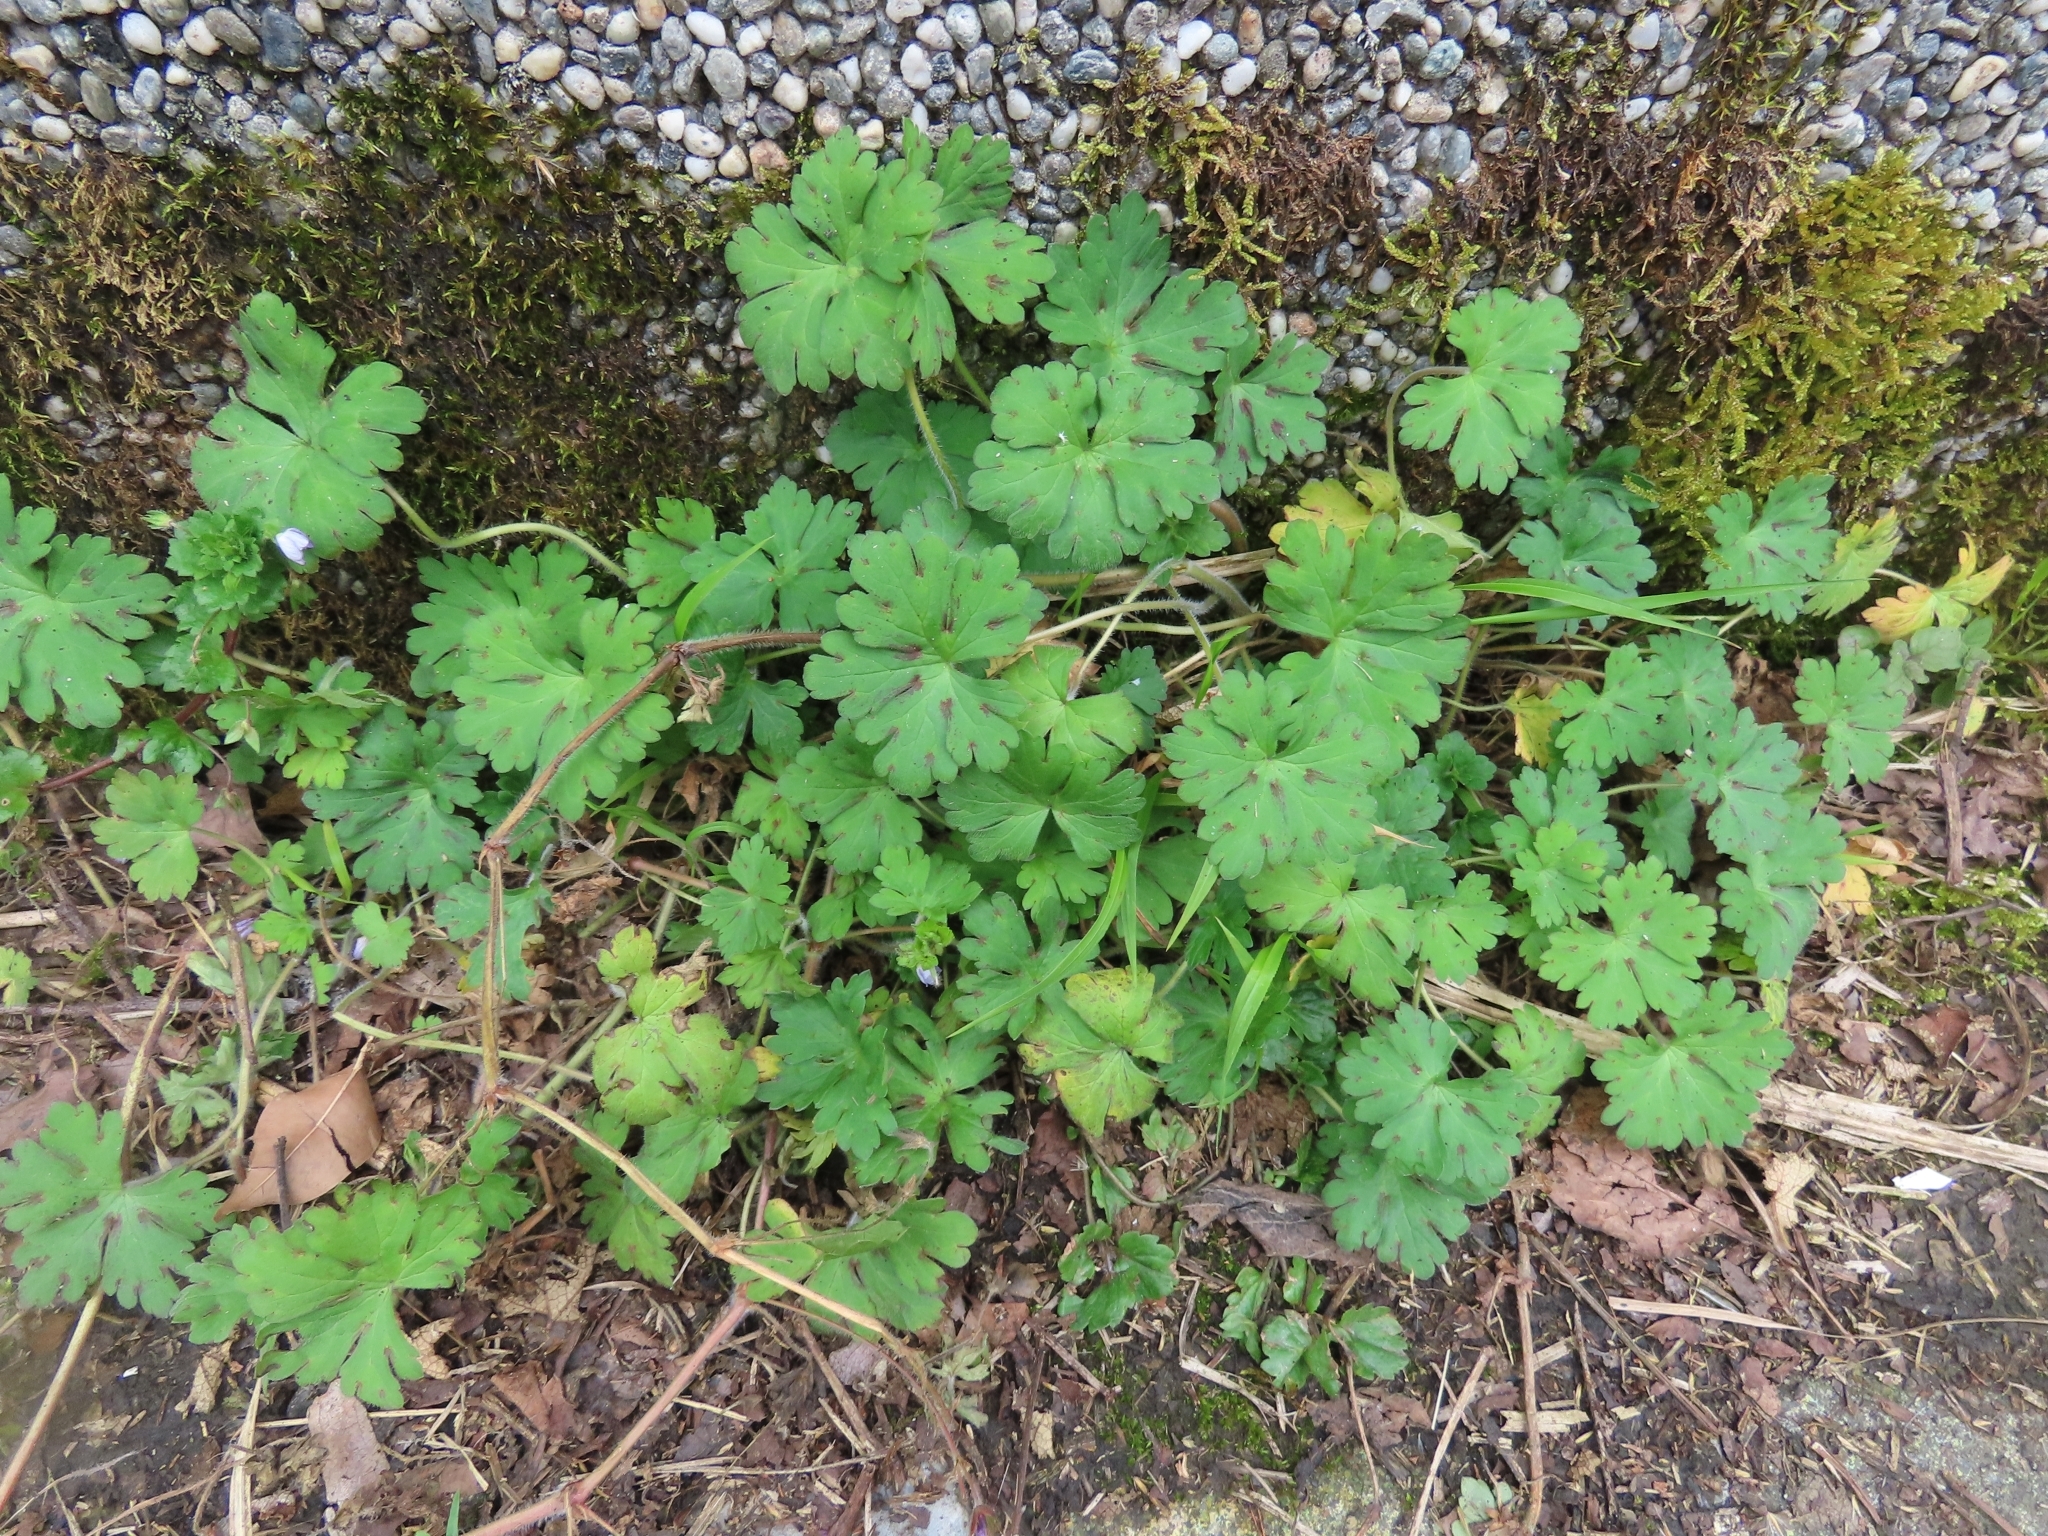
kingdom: Plantae
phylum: Tracheophyta
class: Magnoliopsida
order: Geraniales
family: Geraniaceae
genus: Geranium
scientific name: Geranium carolinianum
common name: Carolina crane's-bill
